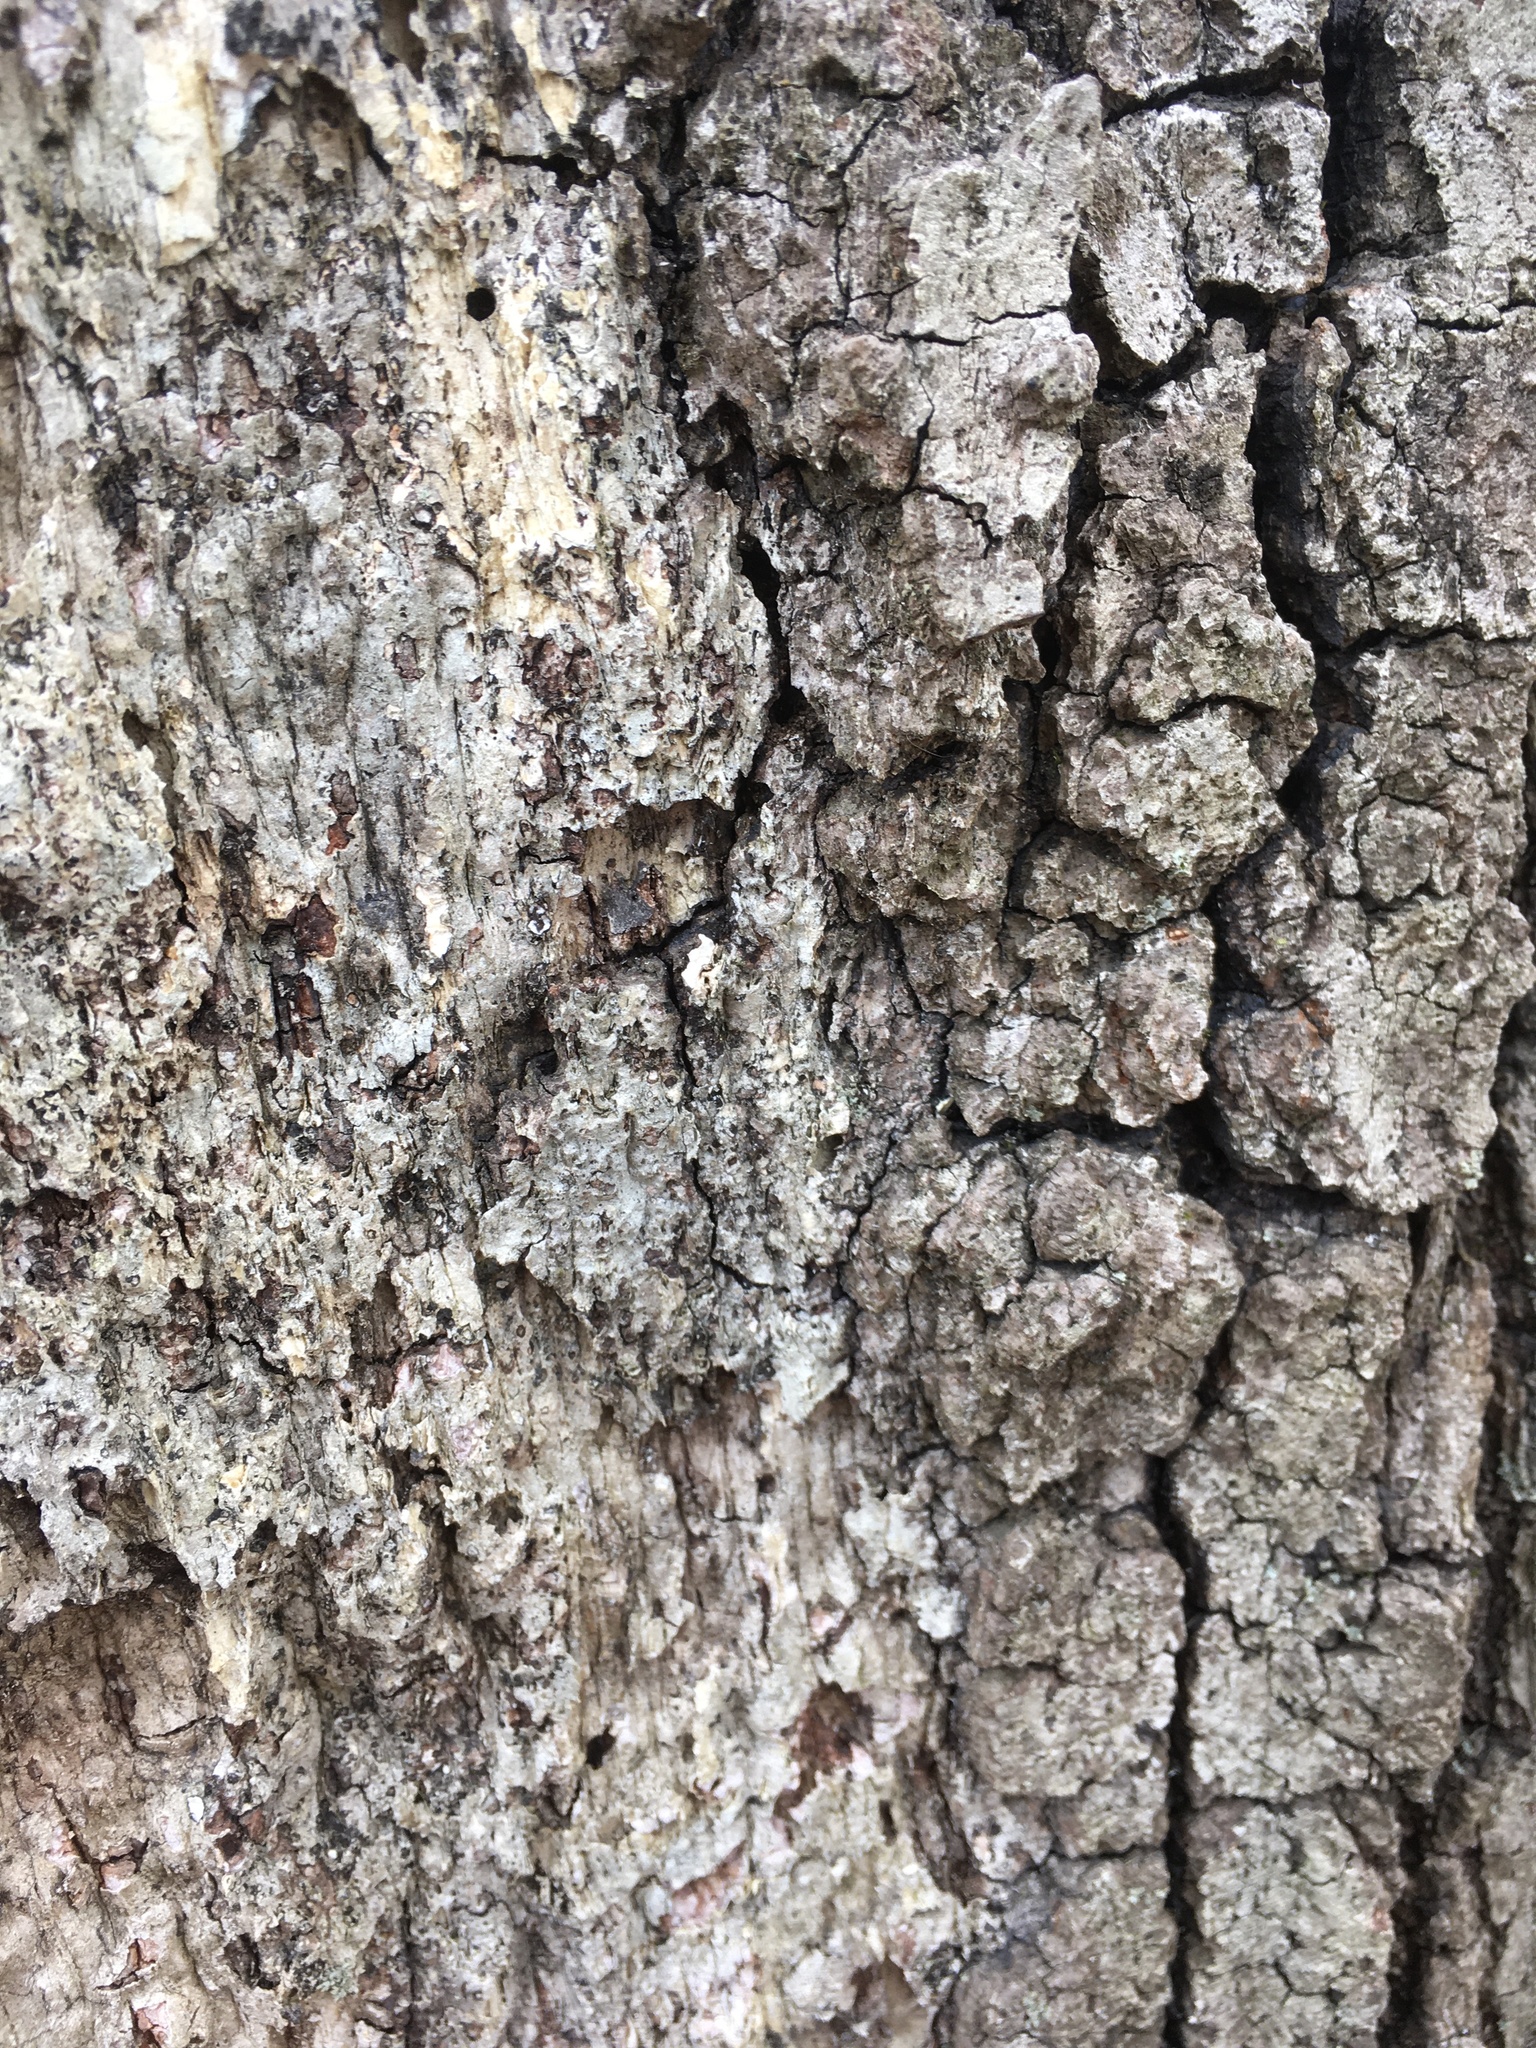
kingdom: Fungi
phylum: Basidiomycota
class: Agaricomycetes
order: Russulales
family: Stereaceae
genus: Acanthophysium
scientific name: Acanthophysium oakesii
